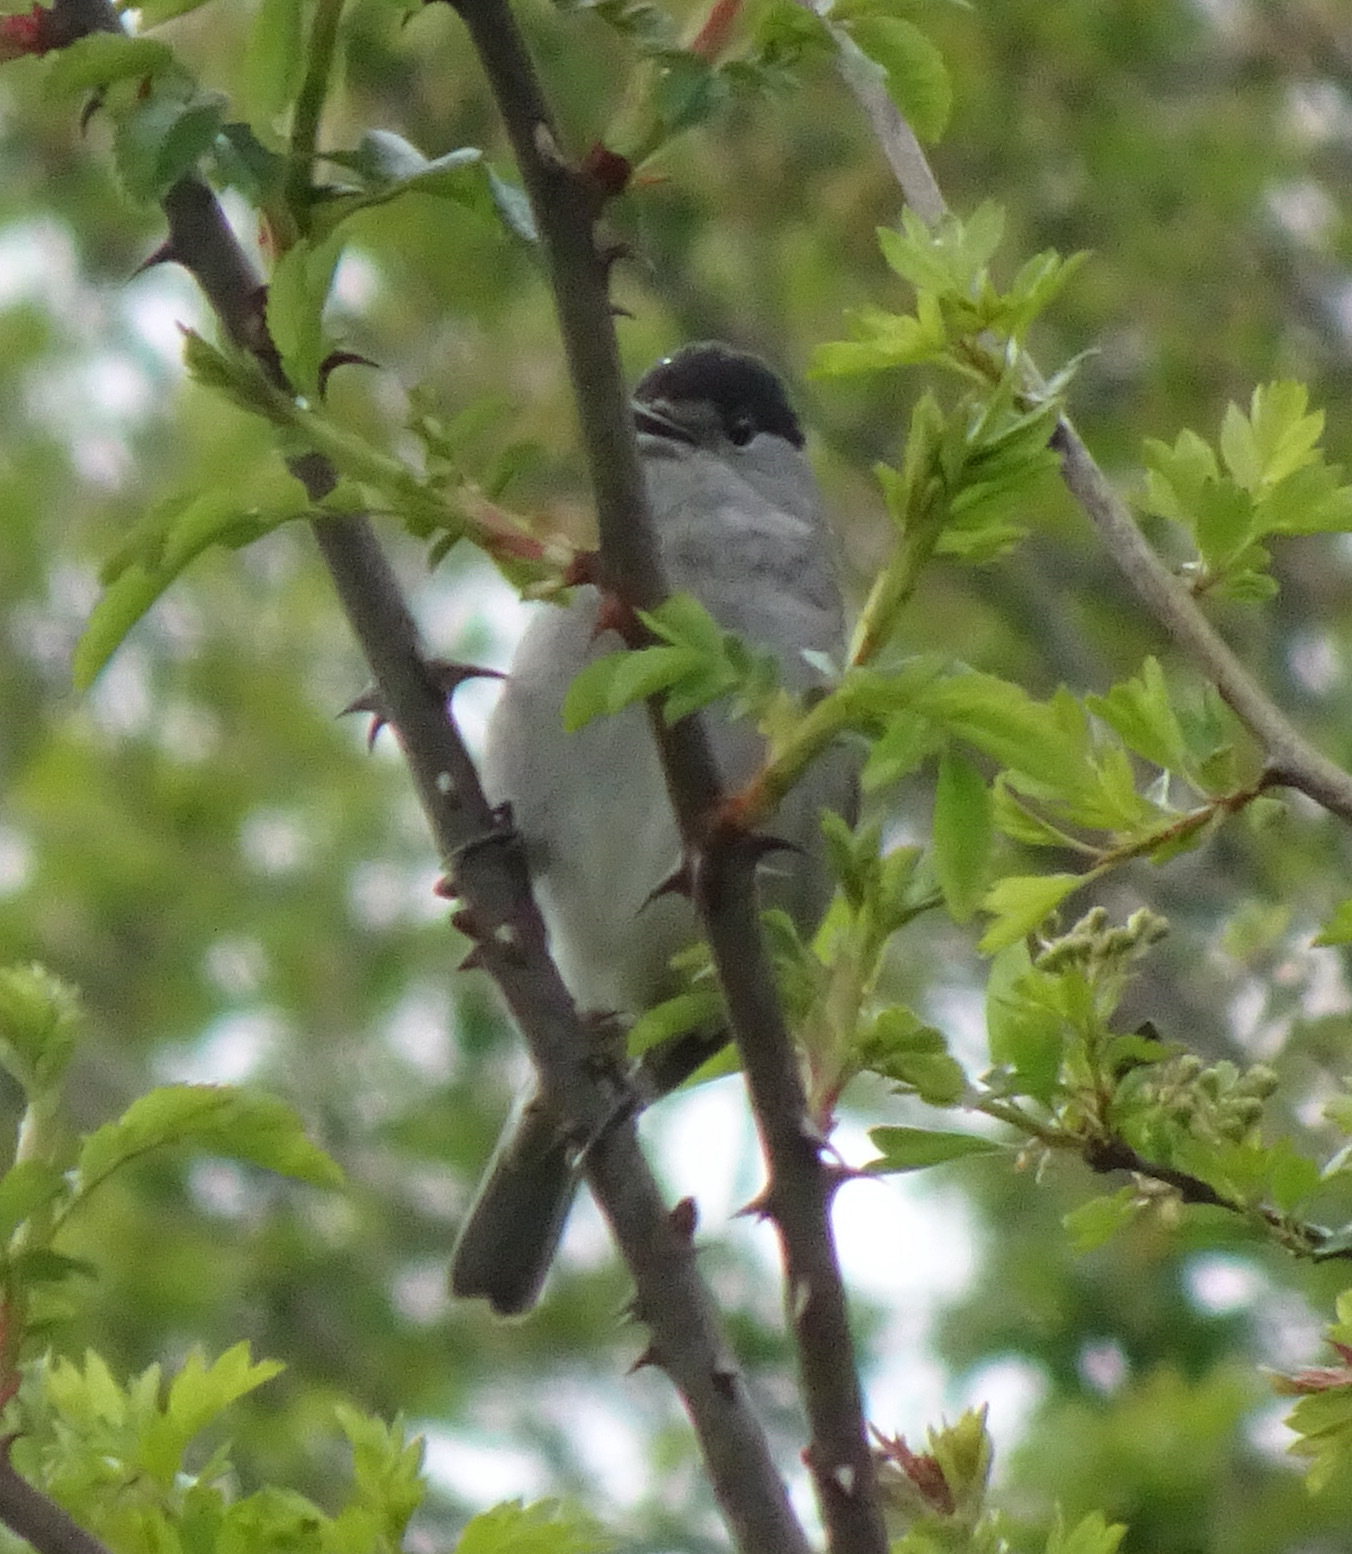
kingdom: Animalia
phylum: Chordata
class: Aves
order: Passeriformes
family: Sylviidae
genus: Sylvia
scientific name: Sylvia atricapilla
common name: Eurasian blackcap
